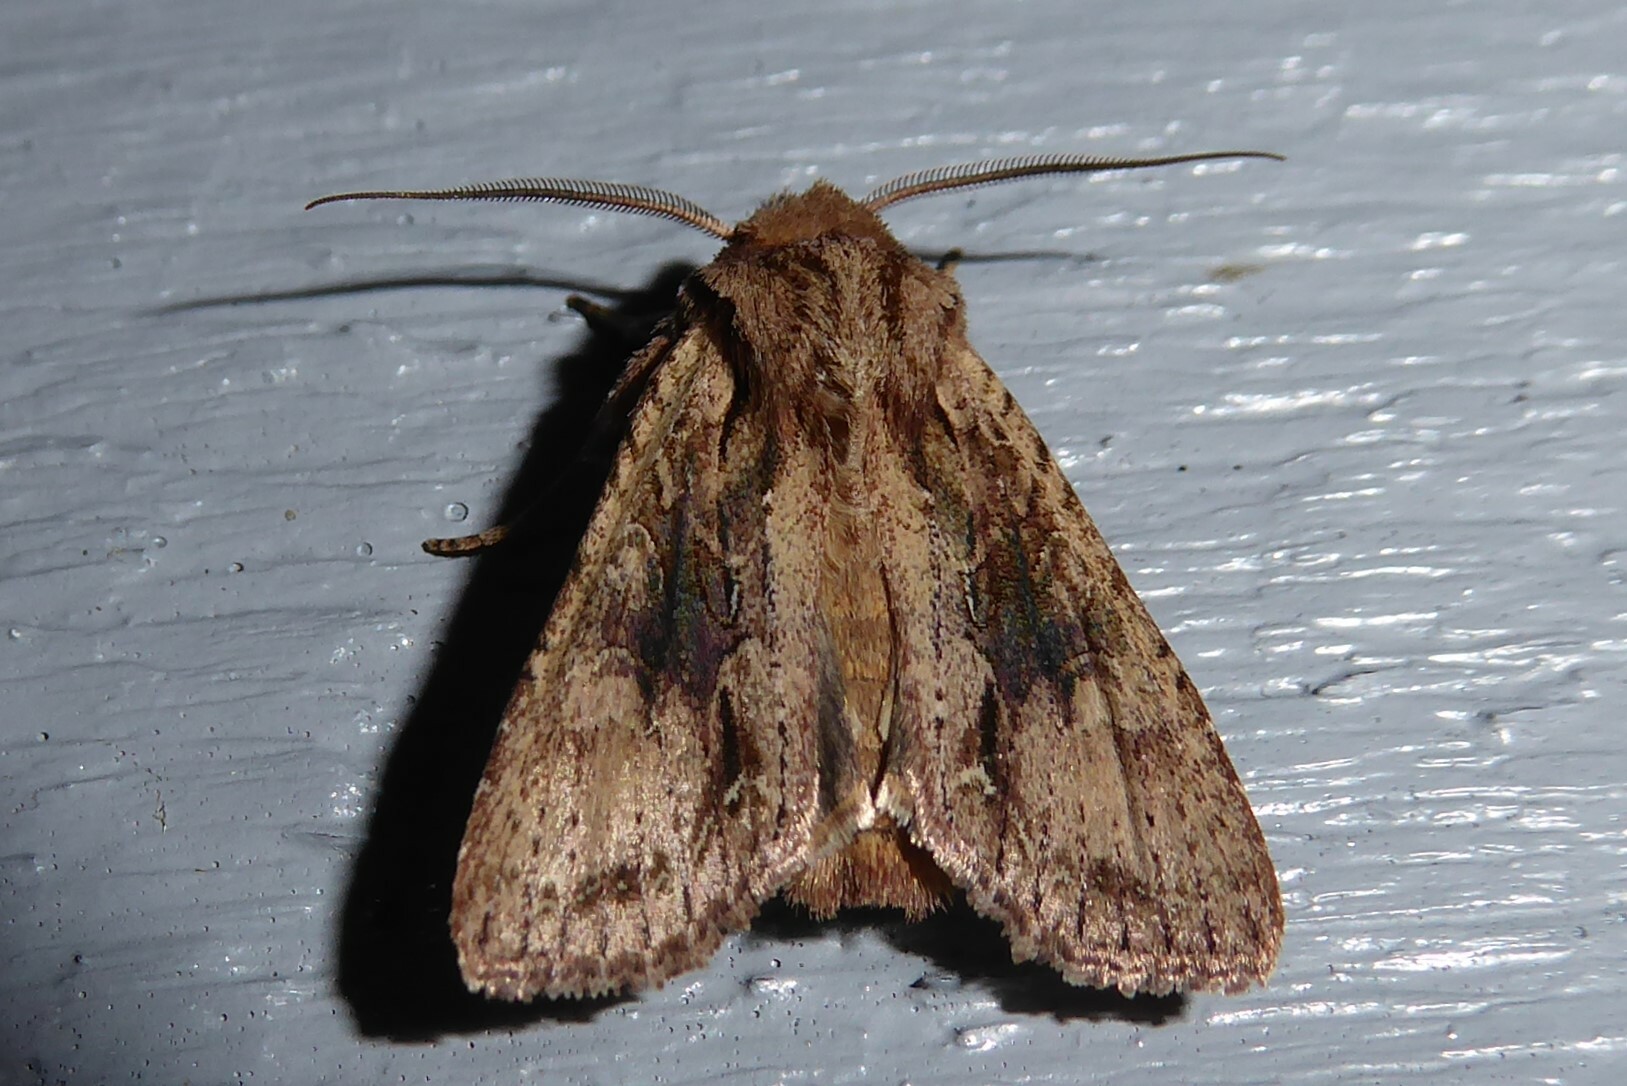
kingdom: Animalia
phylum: Arthropoda
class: Insecta
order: Lepidoptera
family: Noctuidae
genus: Ichneutica
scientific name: Ichneutica mutans
